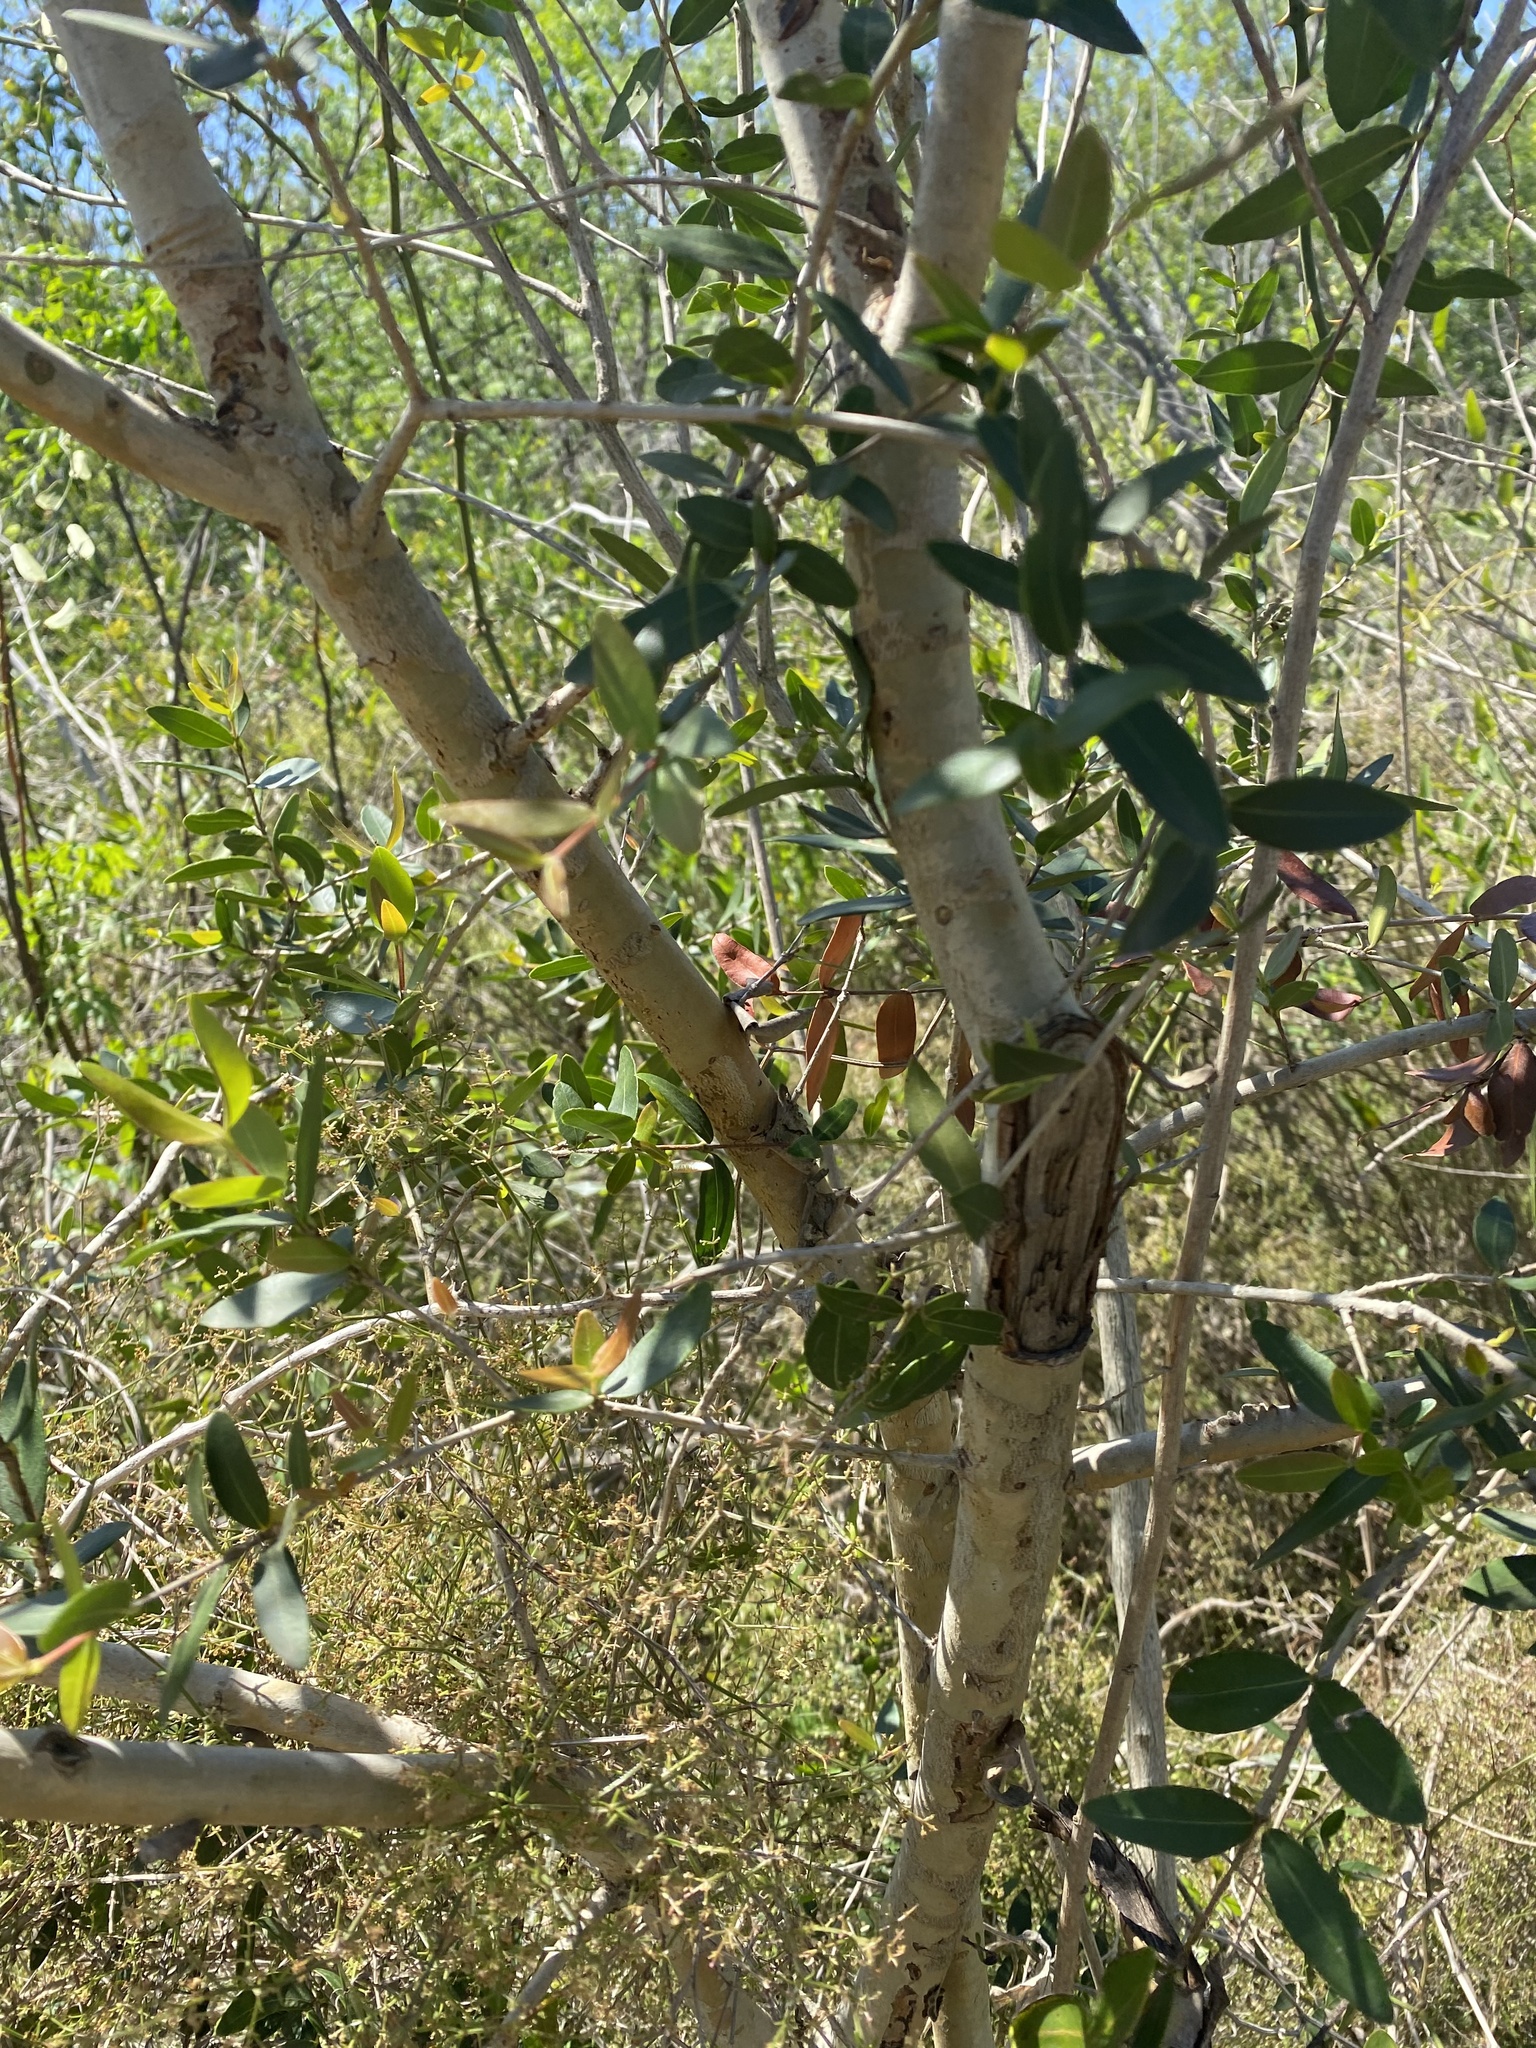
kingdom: Plantae
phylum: Tracheophyta
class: Magnoliopsida
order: Myrtales
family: Myrtaceae
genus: Myrcianthes
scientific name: Myrcianthes cisplatensis
